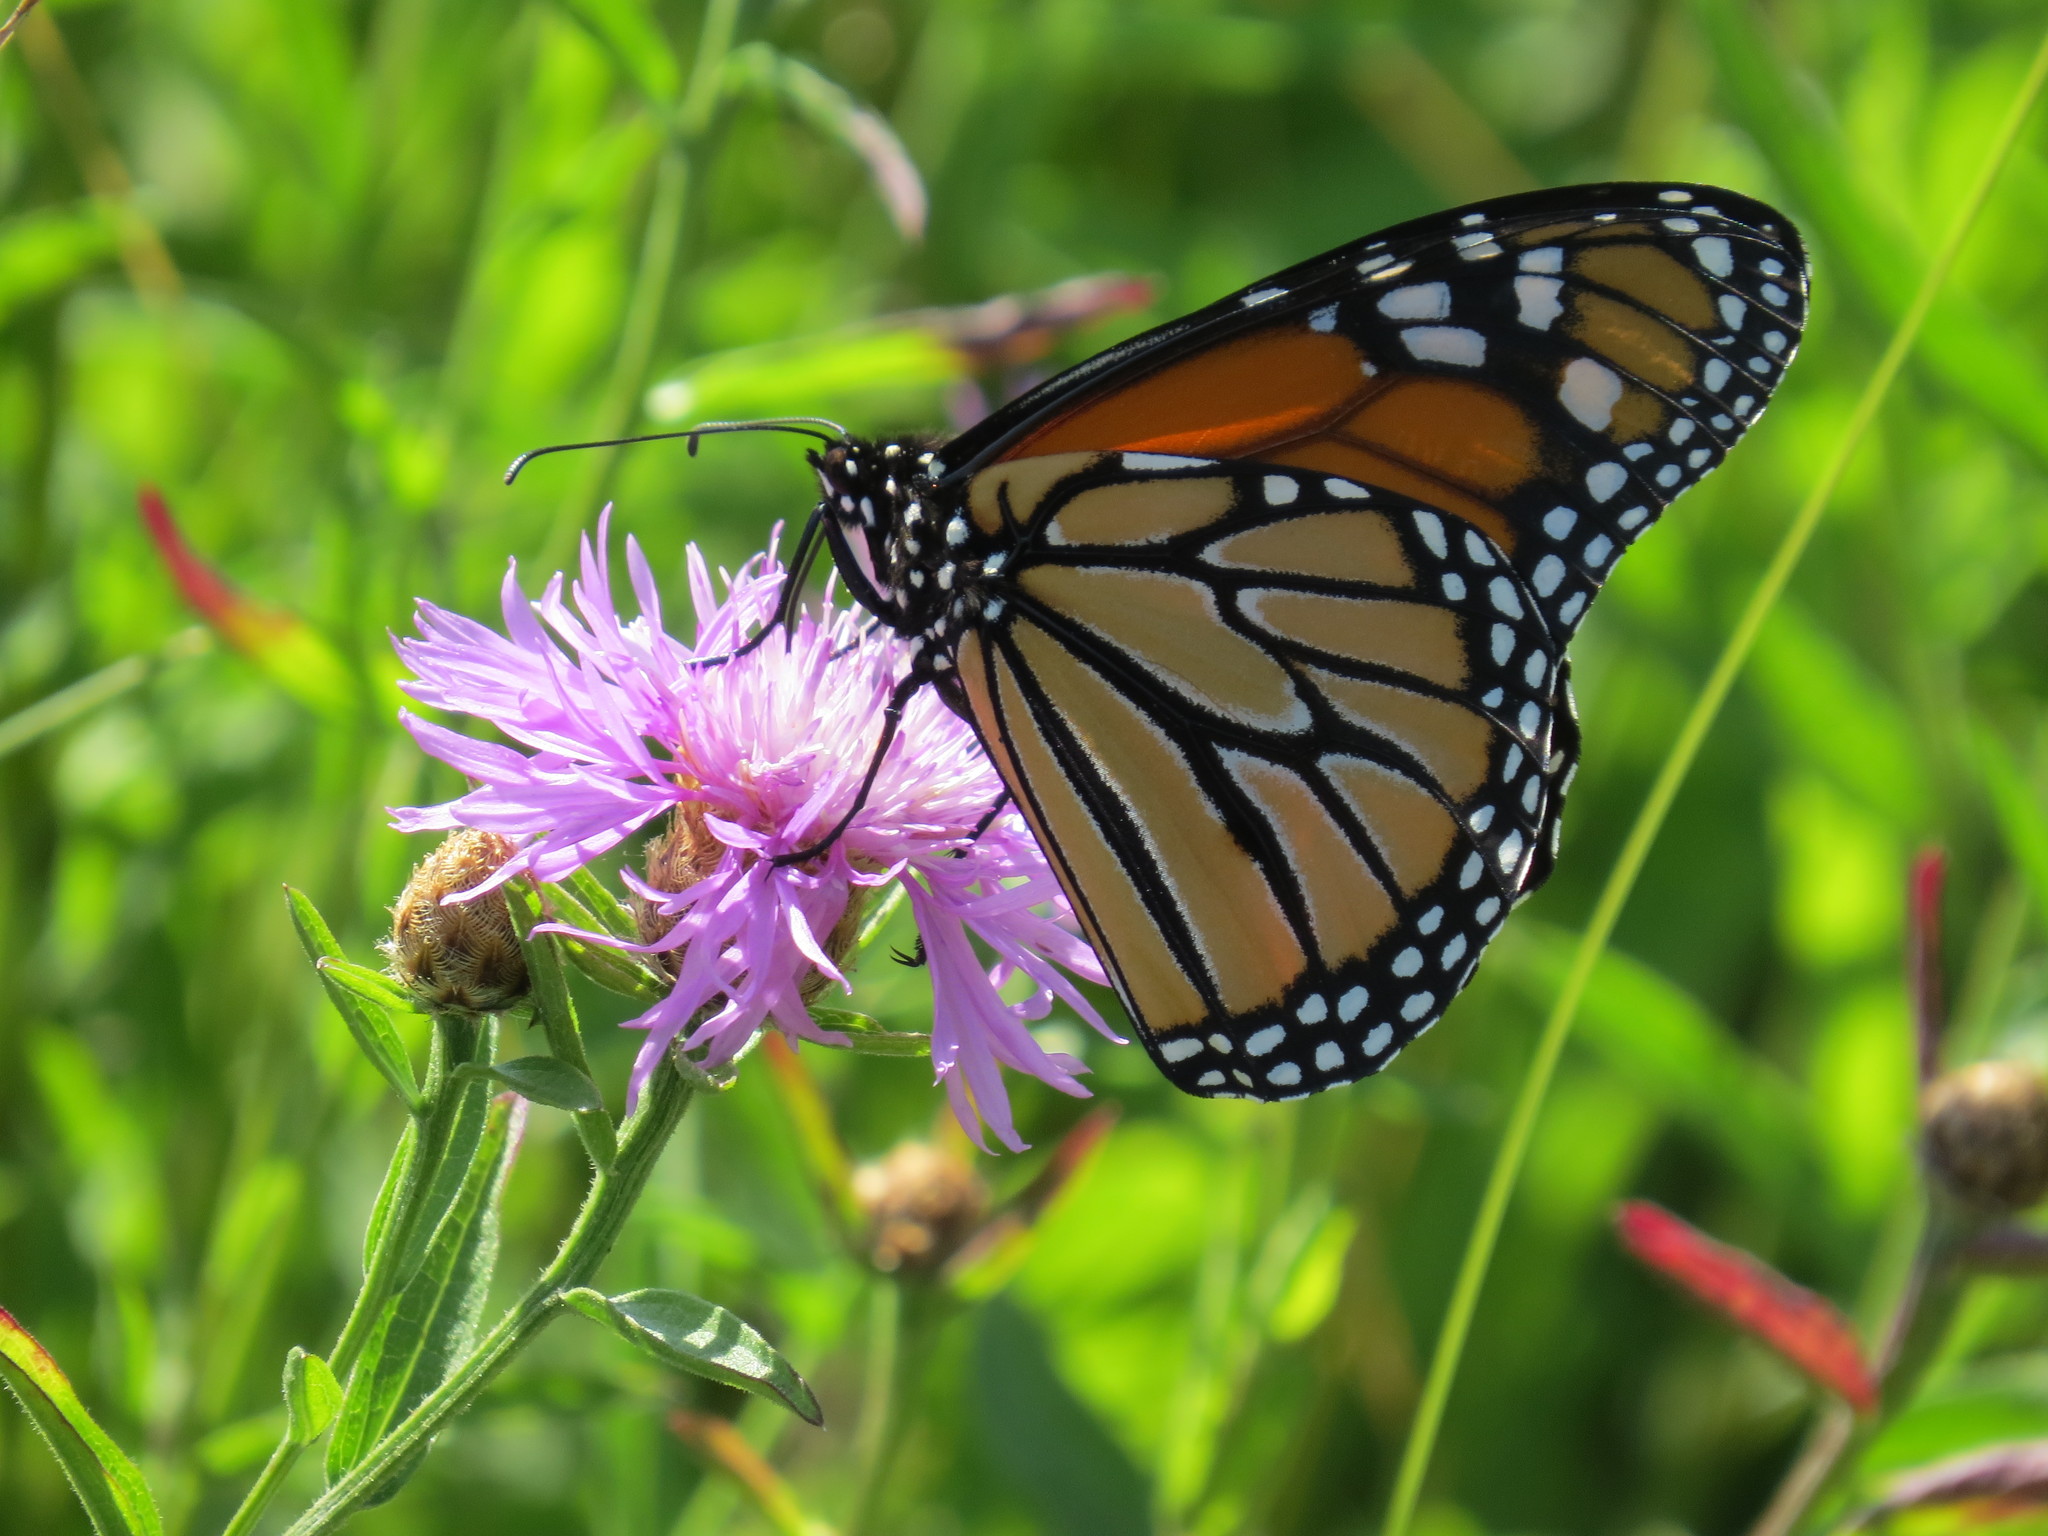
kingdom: Animalia
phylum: Arthropoda
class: Insecta
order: Lepidoptera
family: Nymphalidae
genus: Danaus
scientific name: Danaus plexippus
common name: Monarch
